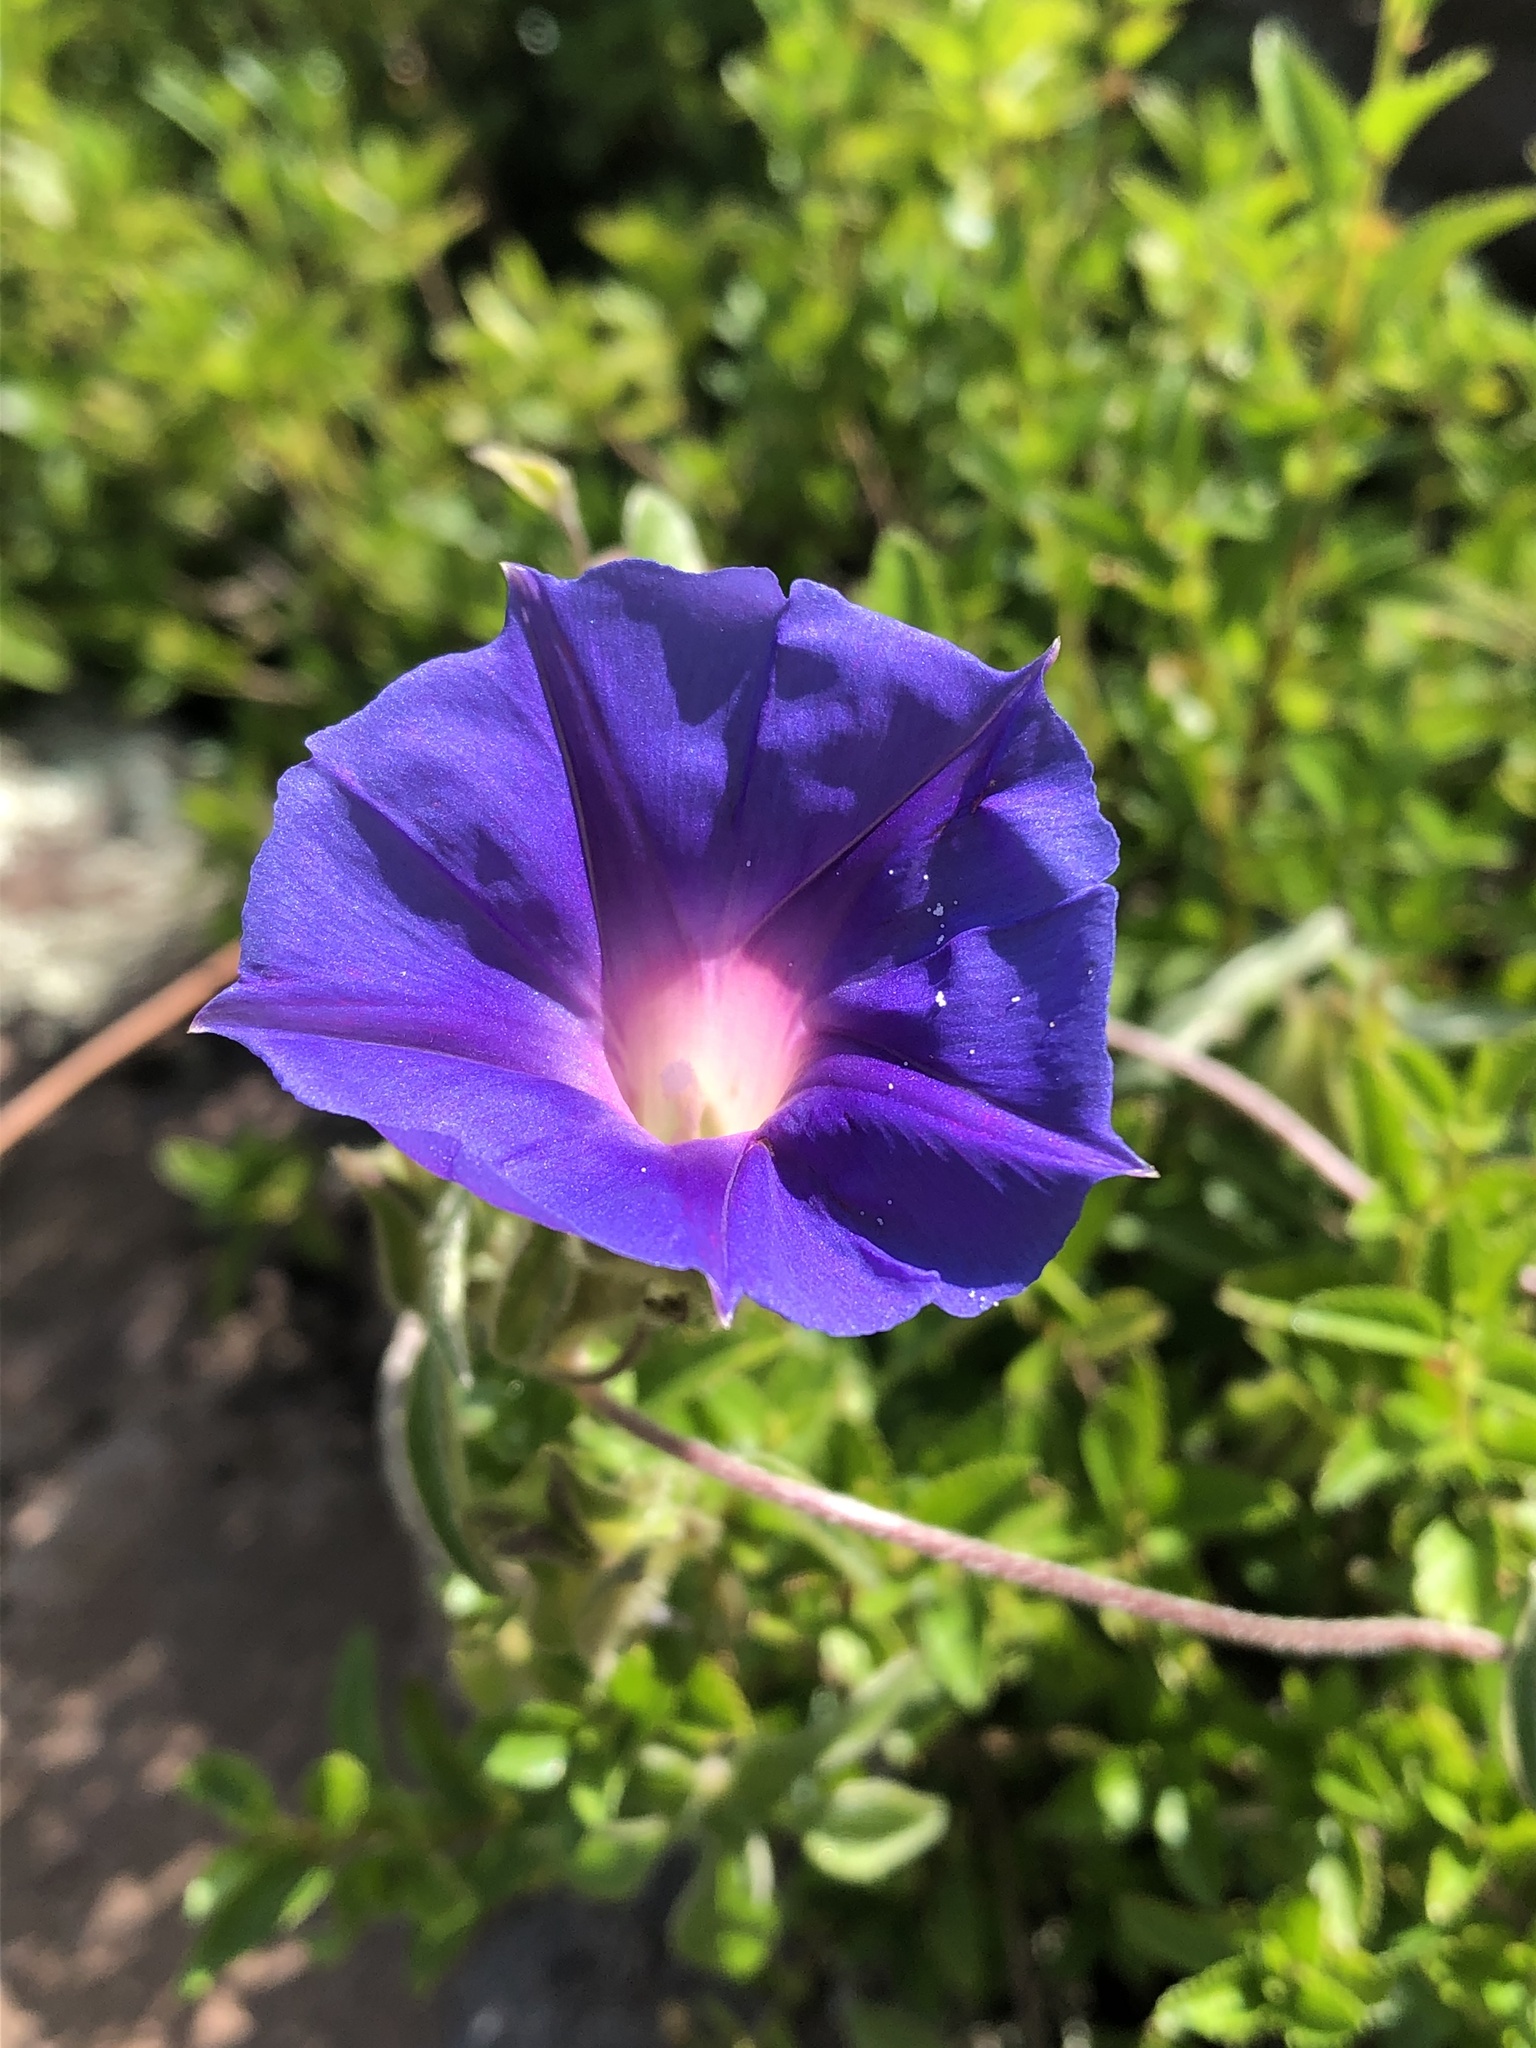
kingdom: Plantae
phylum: Tracheophyta
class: Magnoliopsida
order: Solanales
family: Convolvulaceae
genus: Ipomoea
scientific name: Ipomoea pubescens
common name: Silky morning-glory
